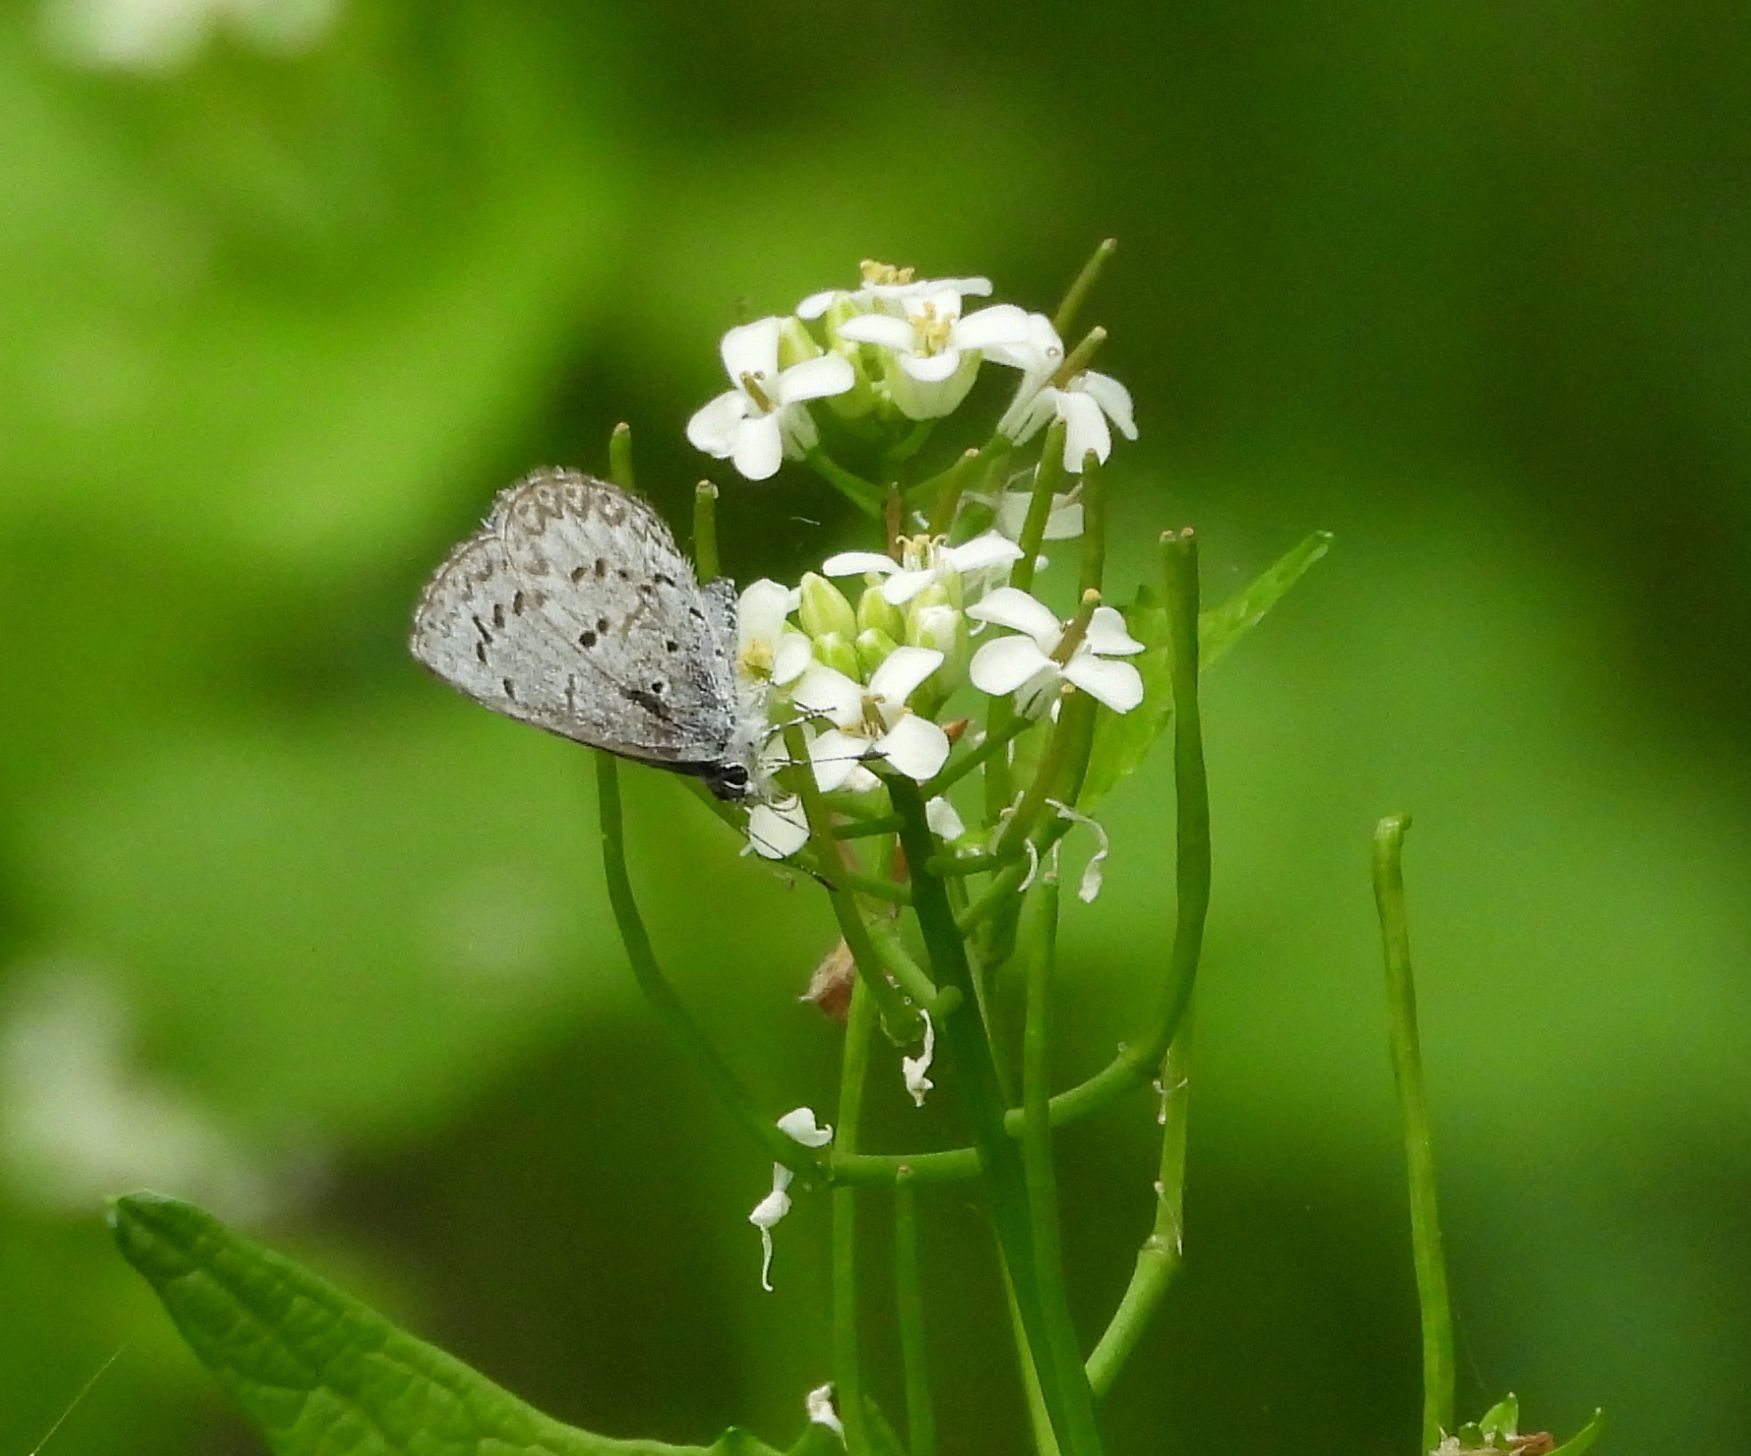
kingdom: Animalia
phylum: Arthropoda
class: Insecta
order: Lepidoptera
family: Lycaenidae
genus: Celastrina
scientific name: Celastrina lucia
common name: Lucia azure
